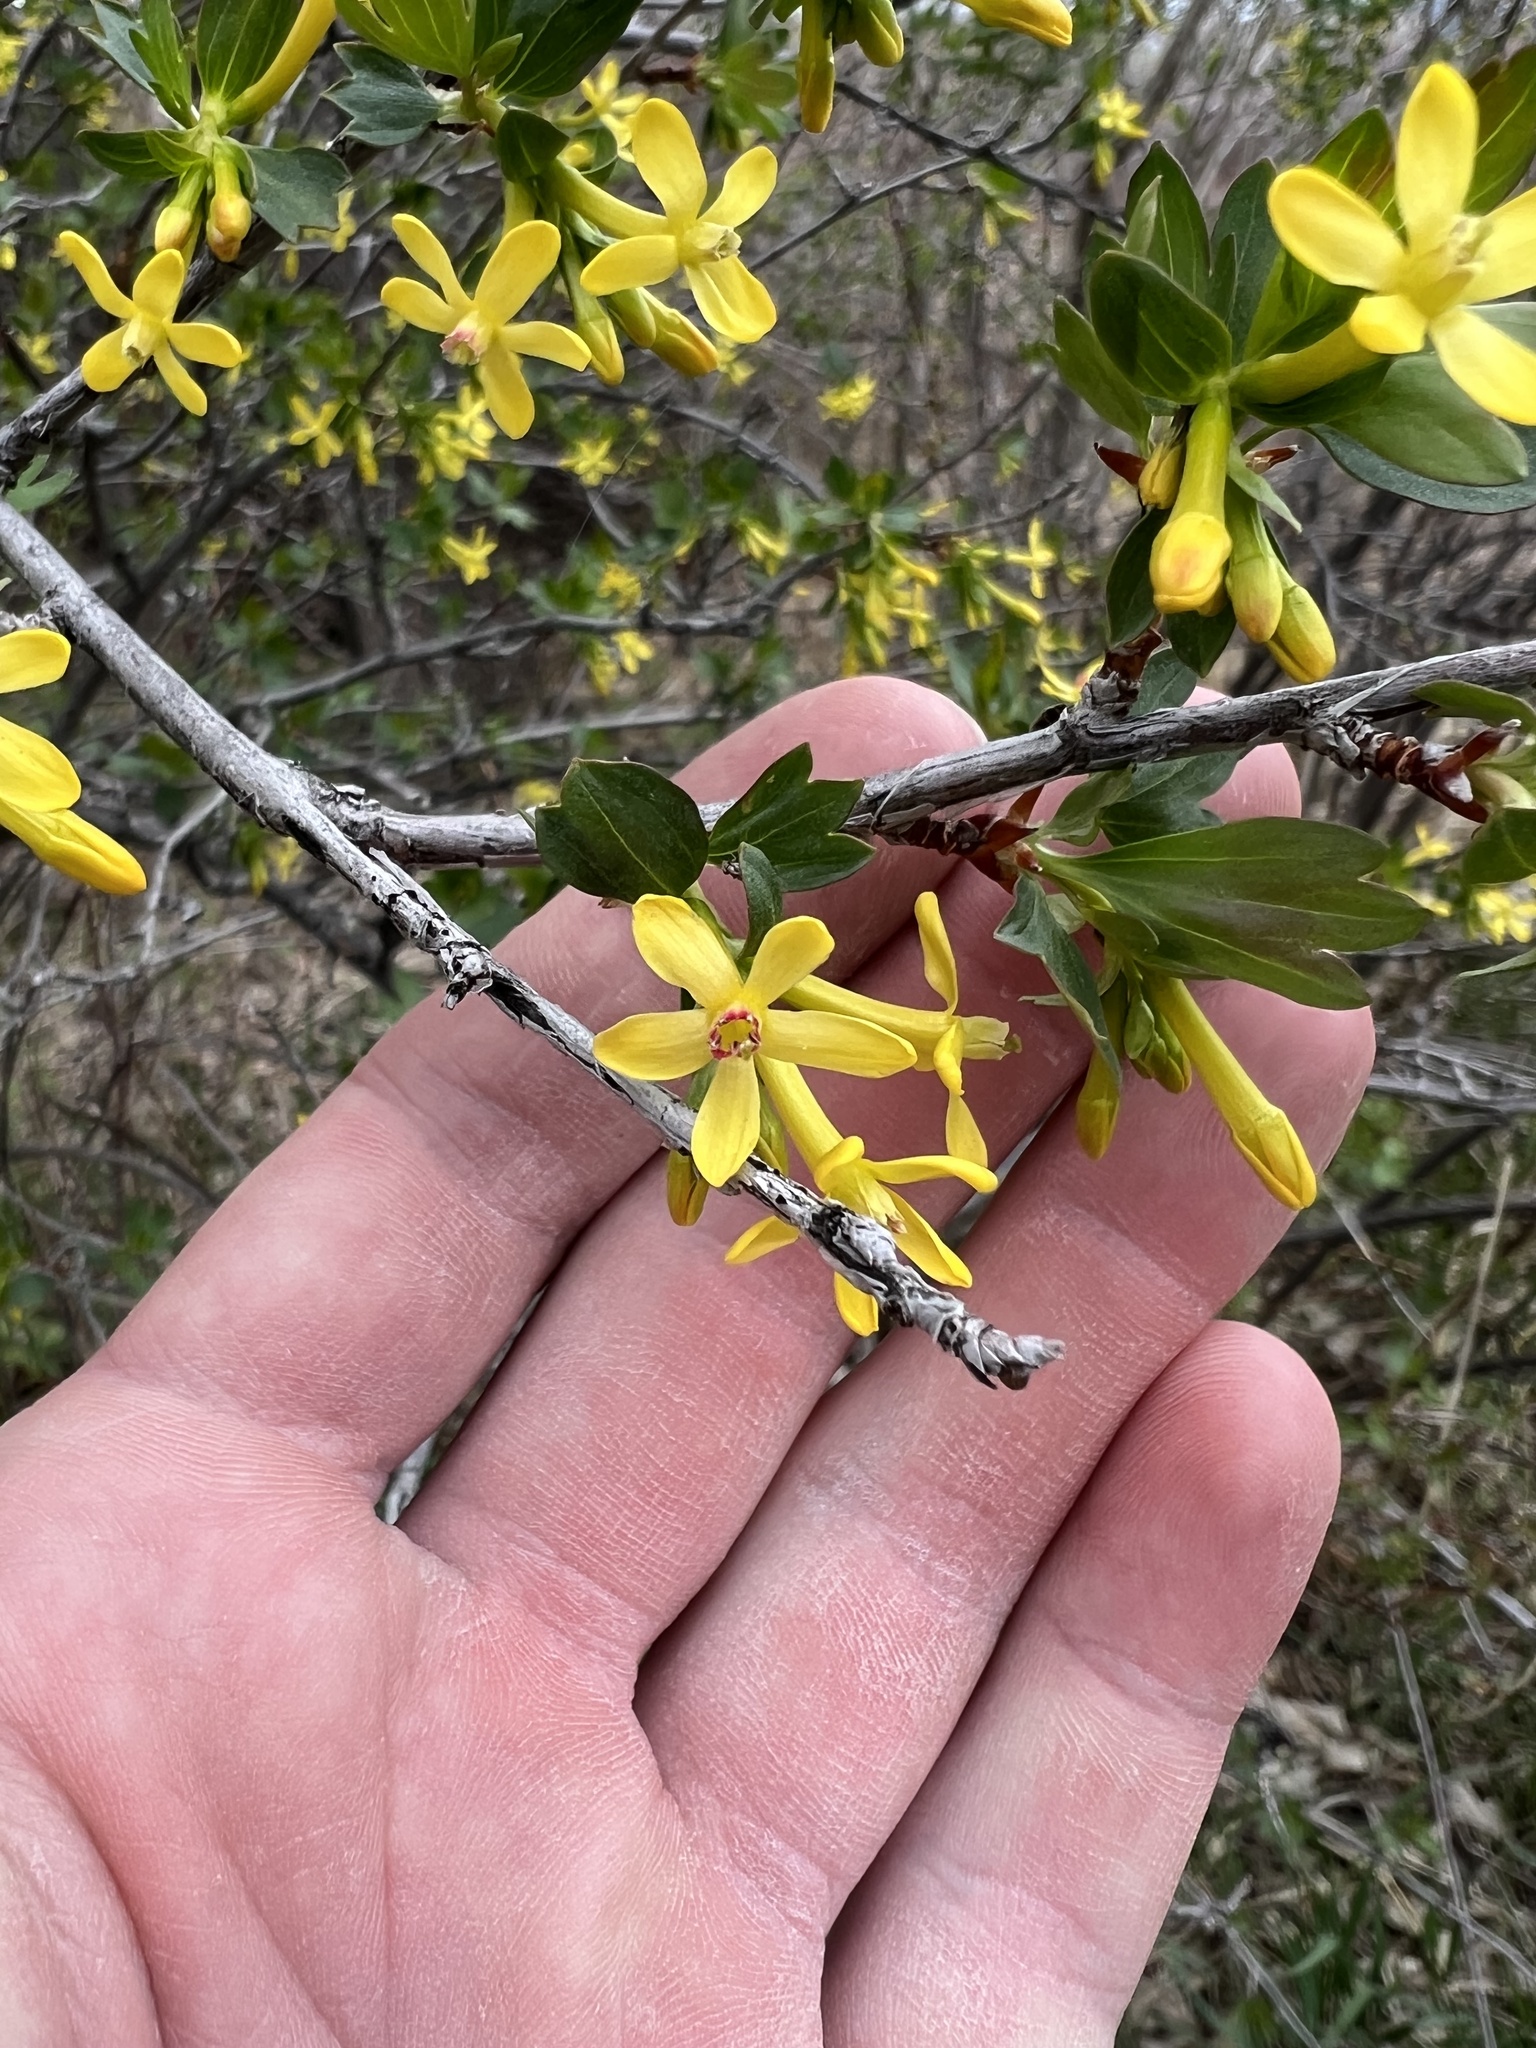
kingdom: Plantae
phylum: Tracheophyta
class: Magnoliopsida
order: Saxifragales
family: Grossulariaceae
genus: Ribes
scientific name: Ribes aureum
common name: Golden currant
